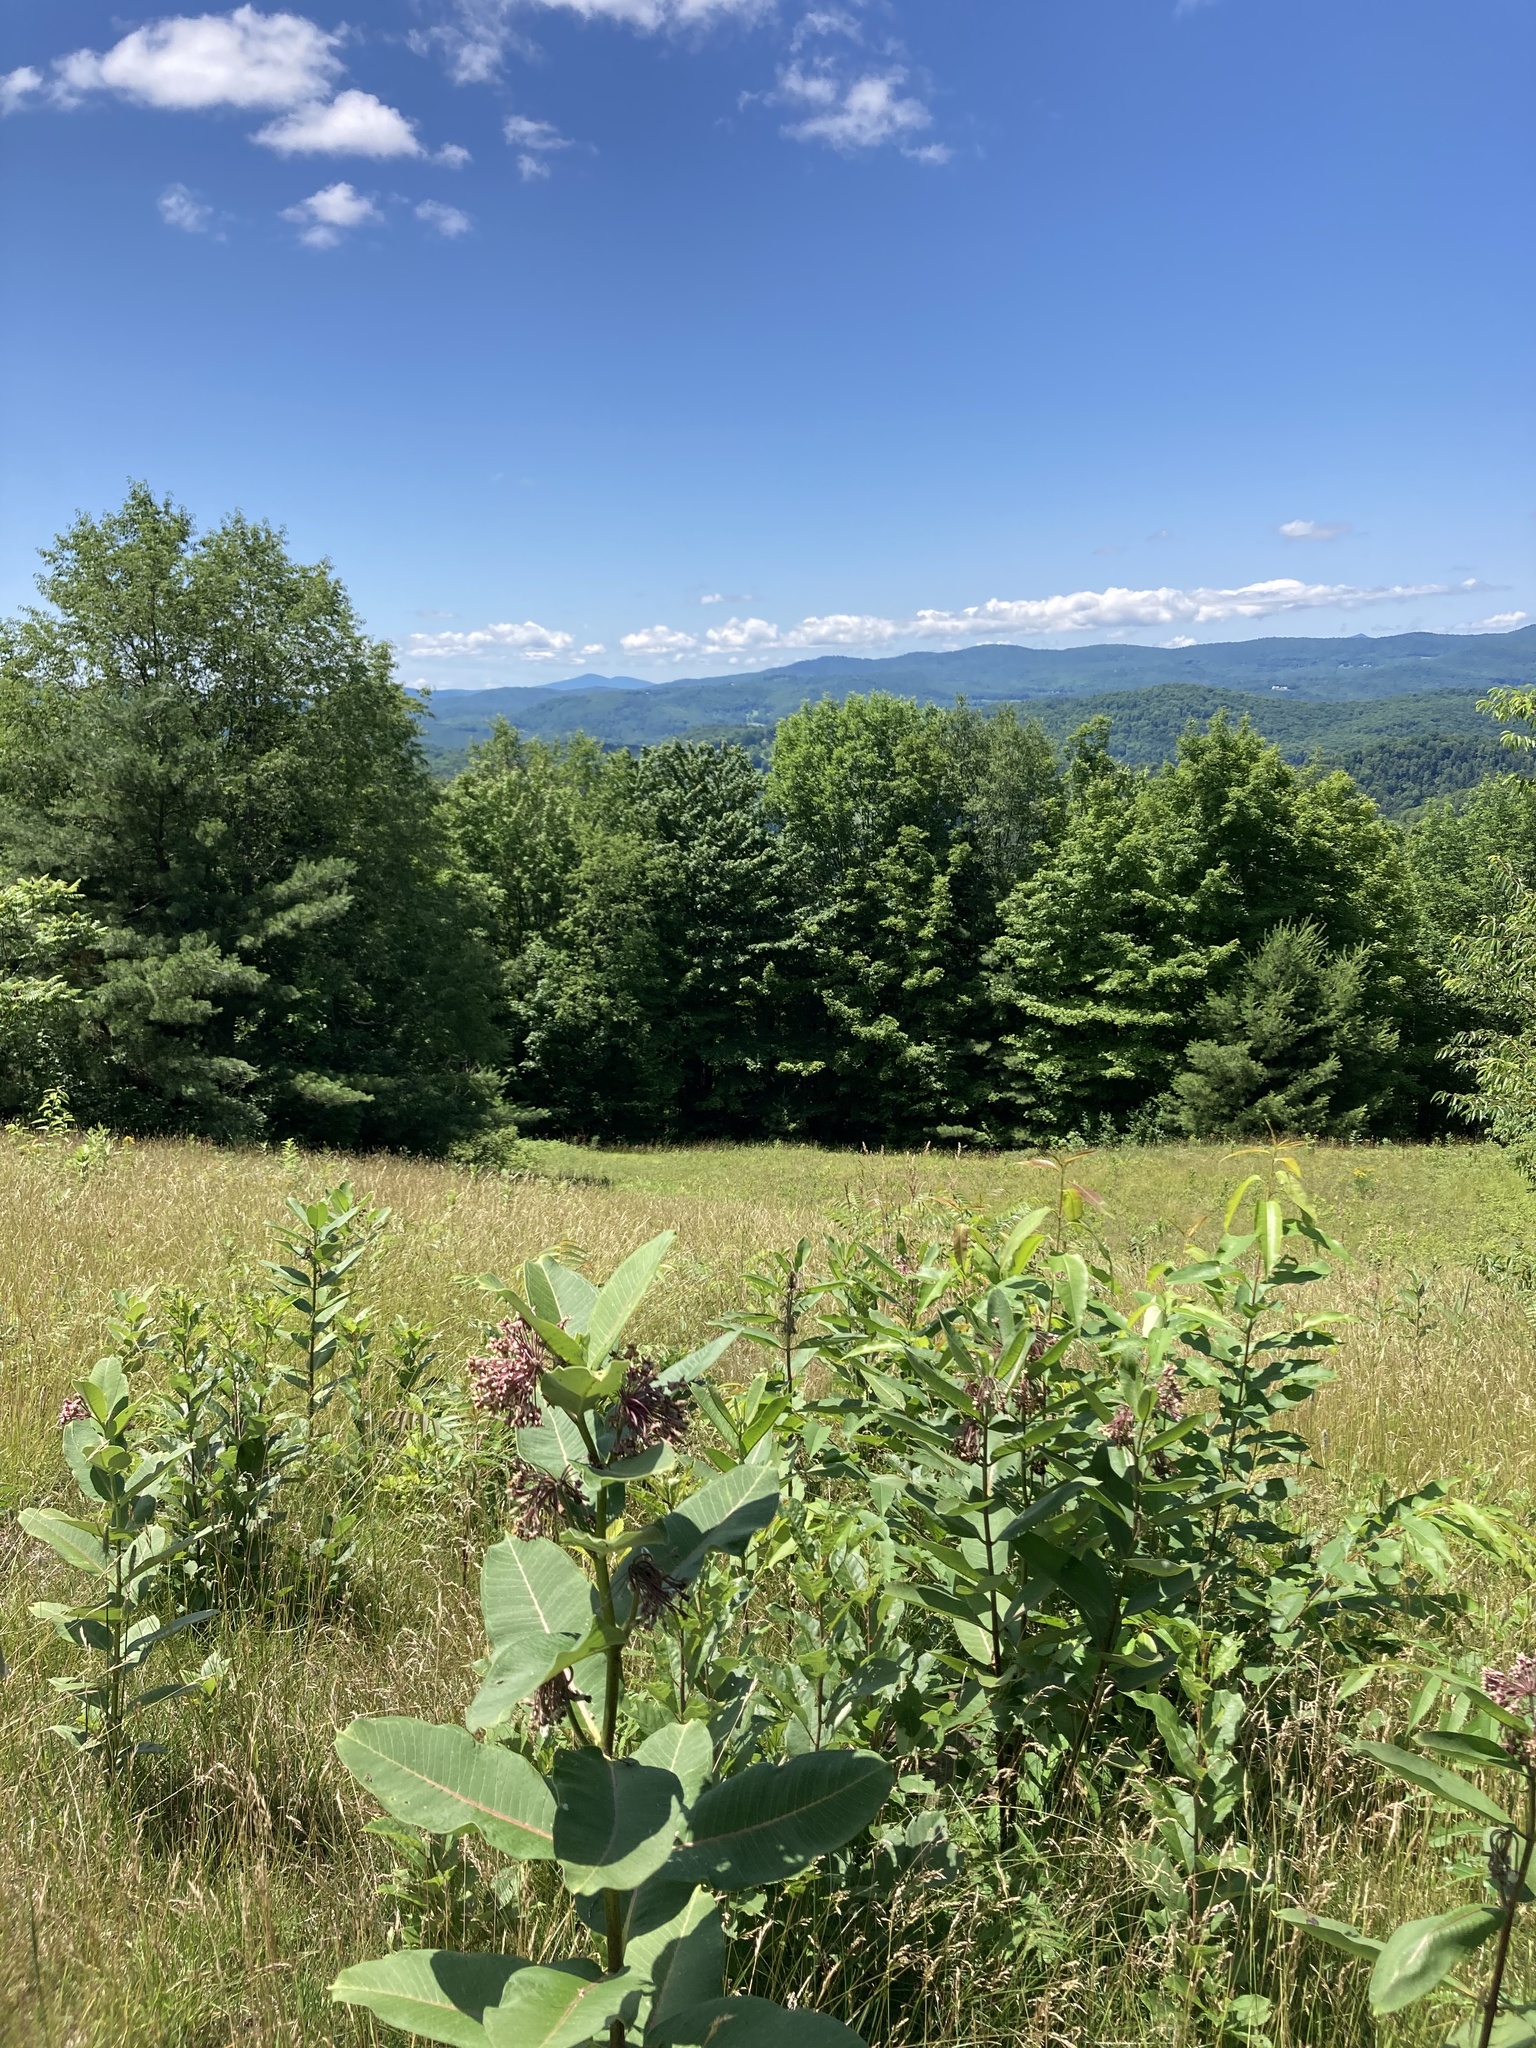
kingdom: Plantae
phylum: Tracheophyta
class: Magnoliopsida
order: Gentianales
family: Apocynaceae
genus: Asclepias
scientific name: Asclepias syriaca
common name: Common milkweed
